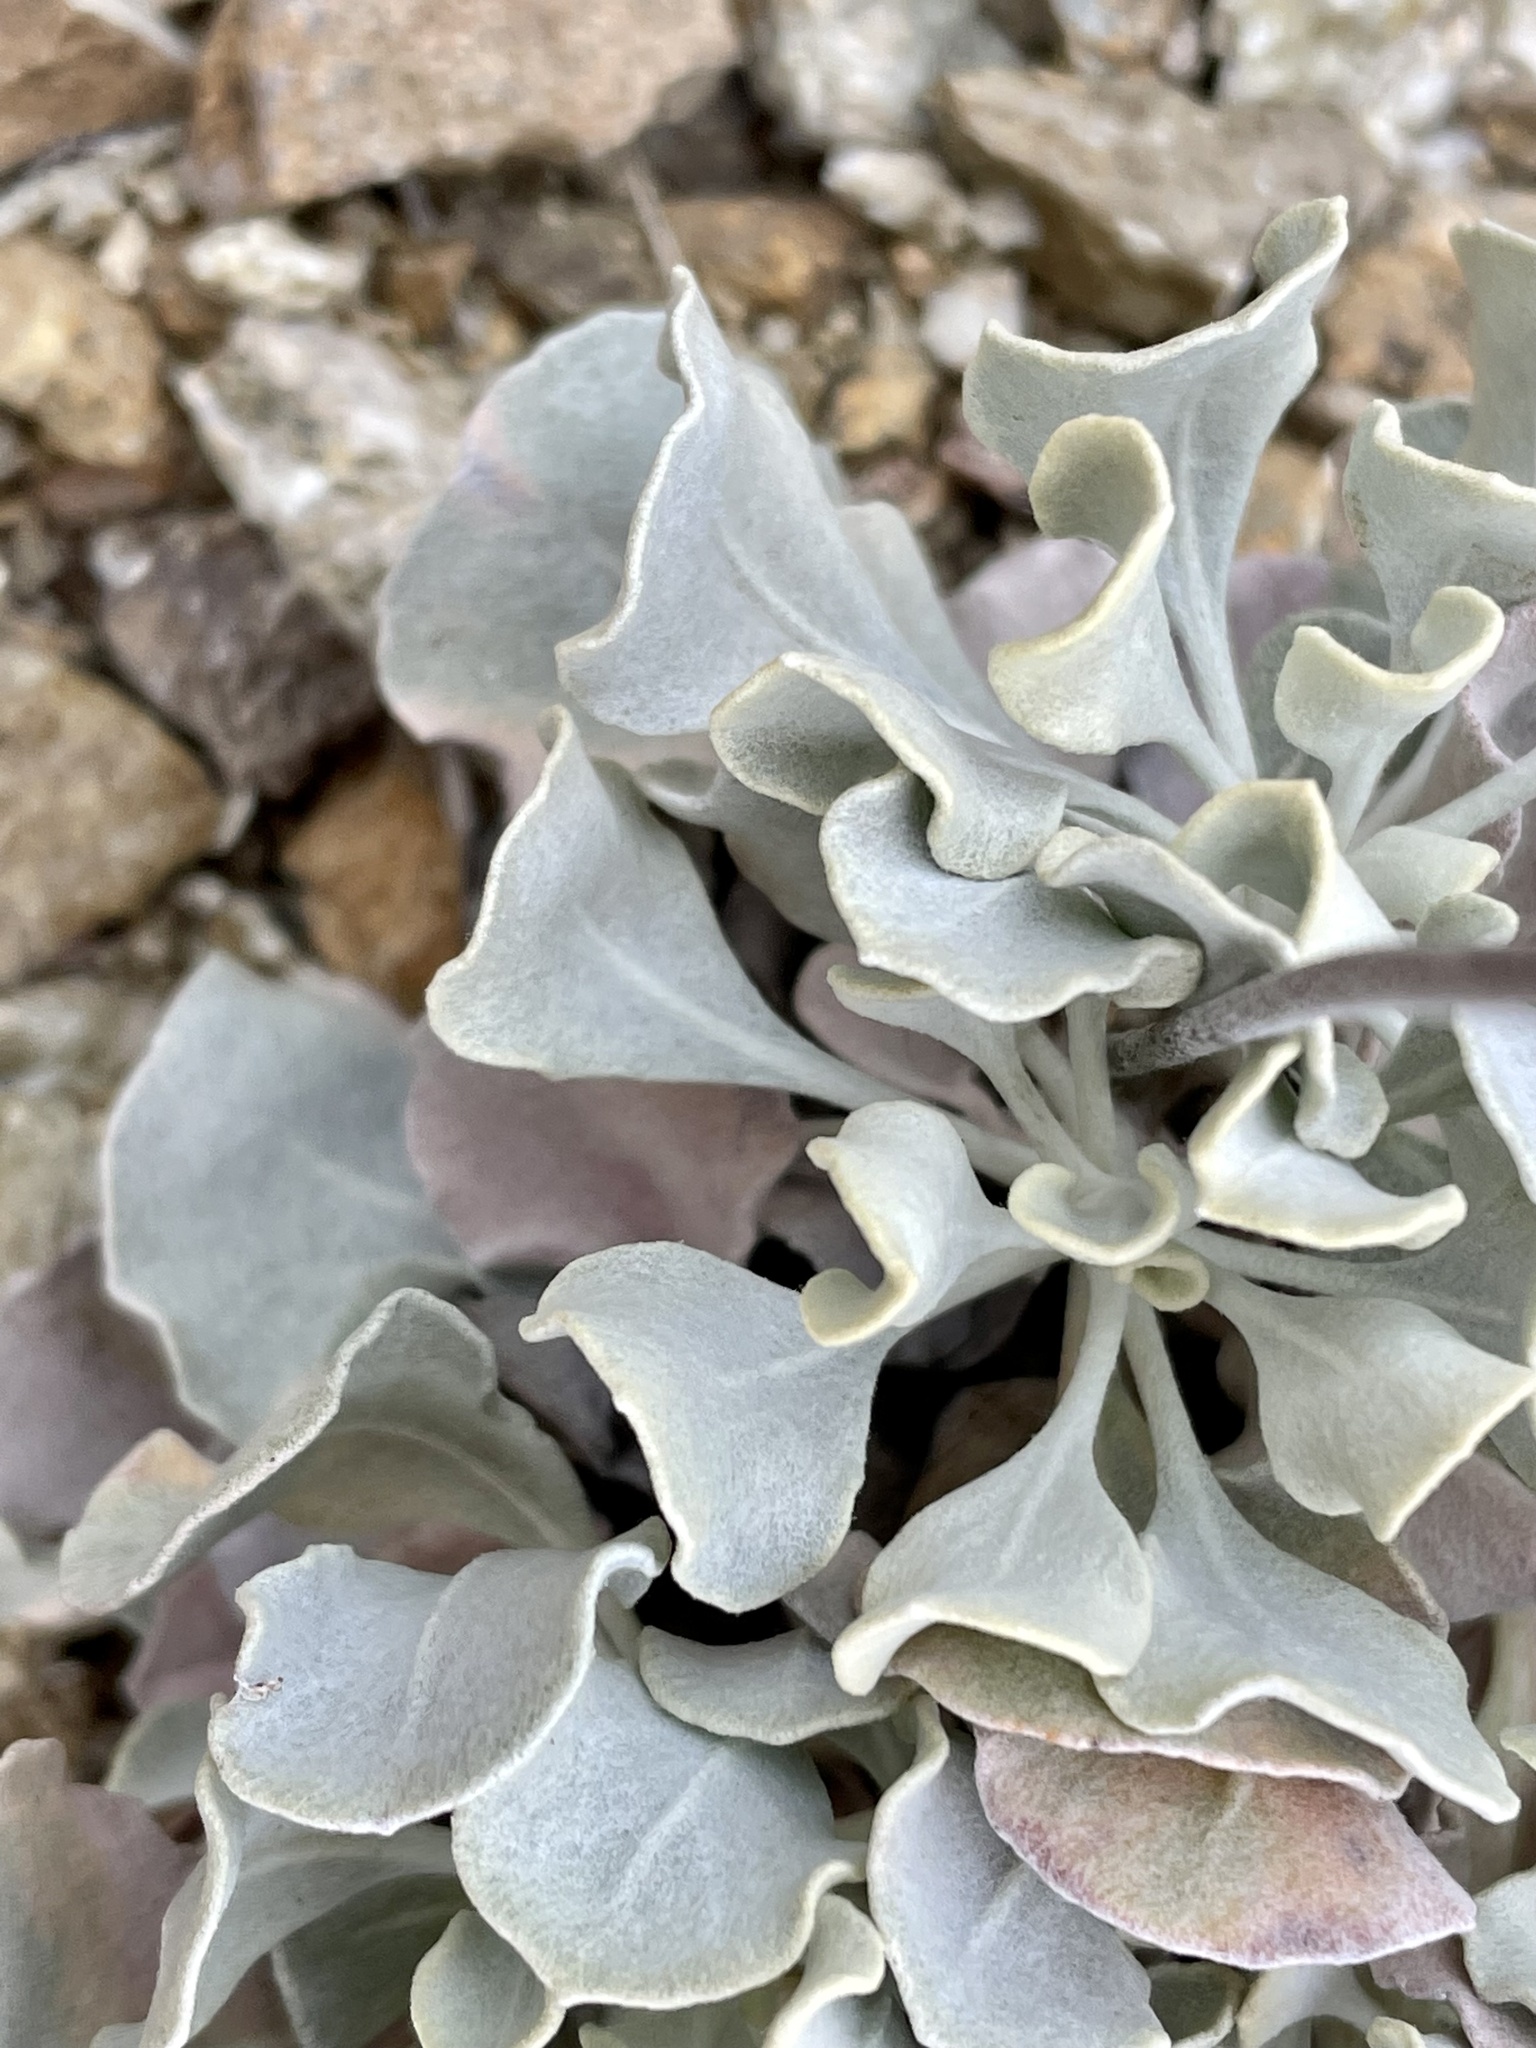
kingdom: Plantae
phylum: Tracheophyta
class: Magnoliopsida
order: Caryophyllales
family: Polygonaceae
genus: Eriogonum
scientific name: Eriogonum saxatile
